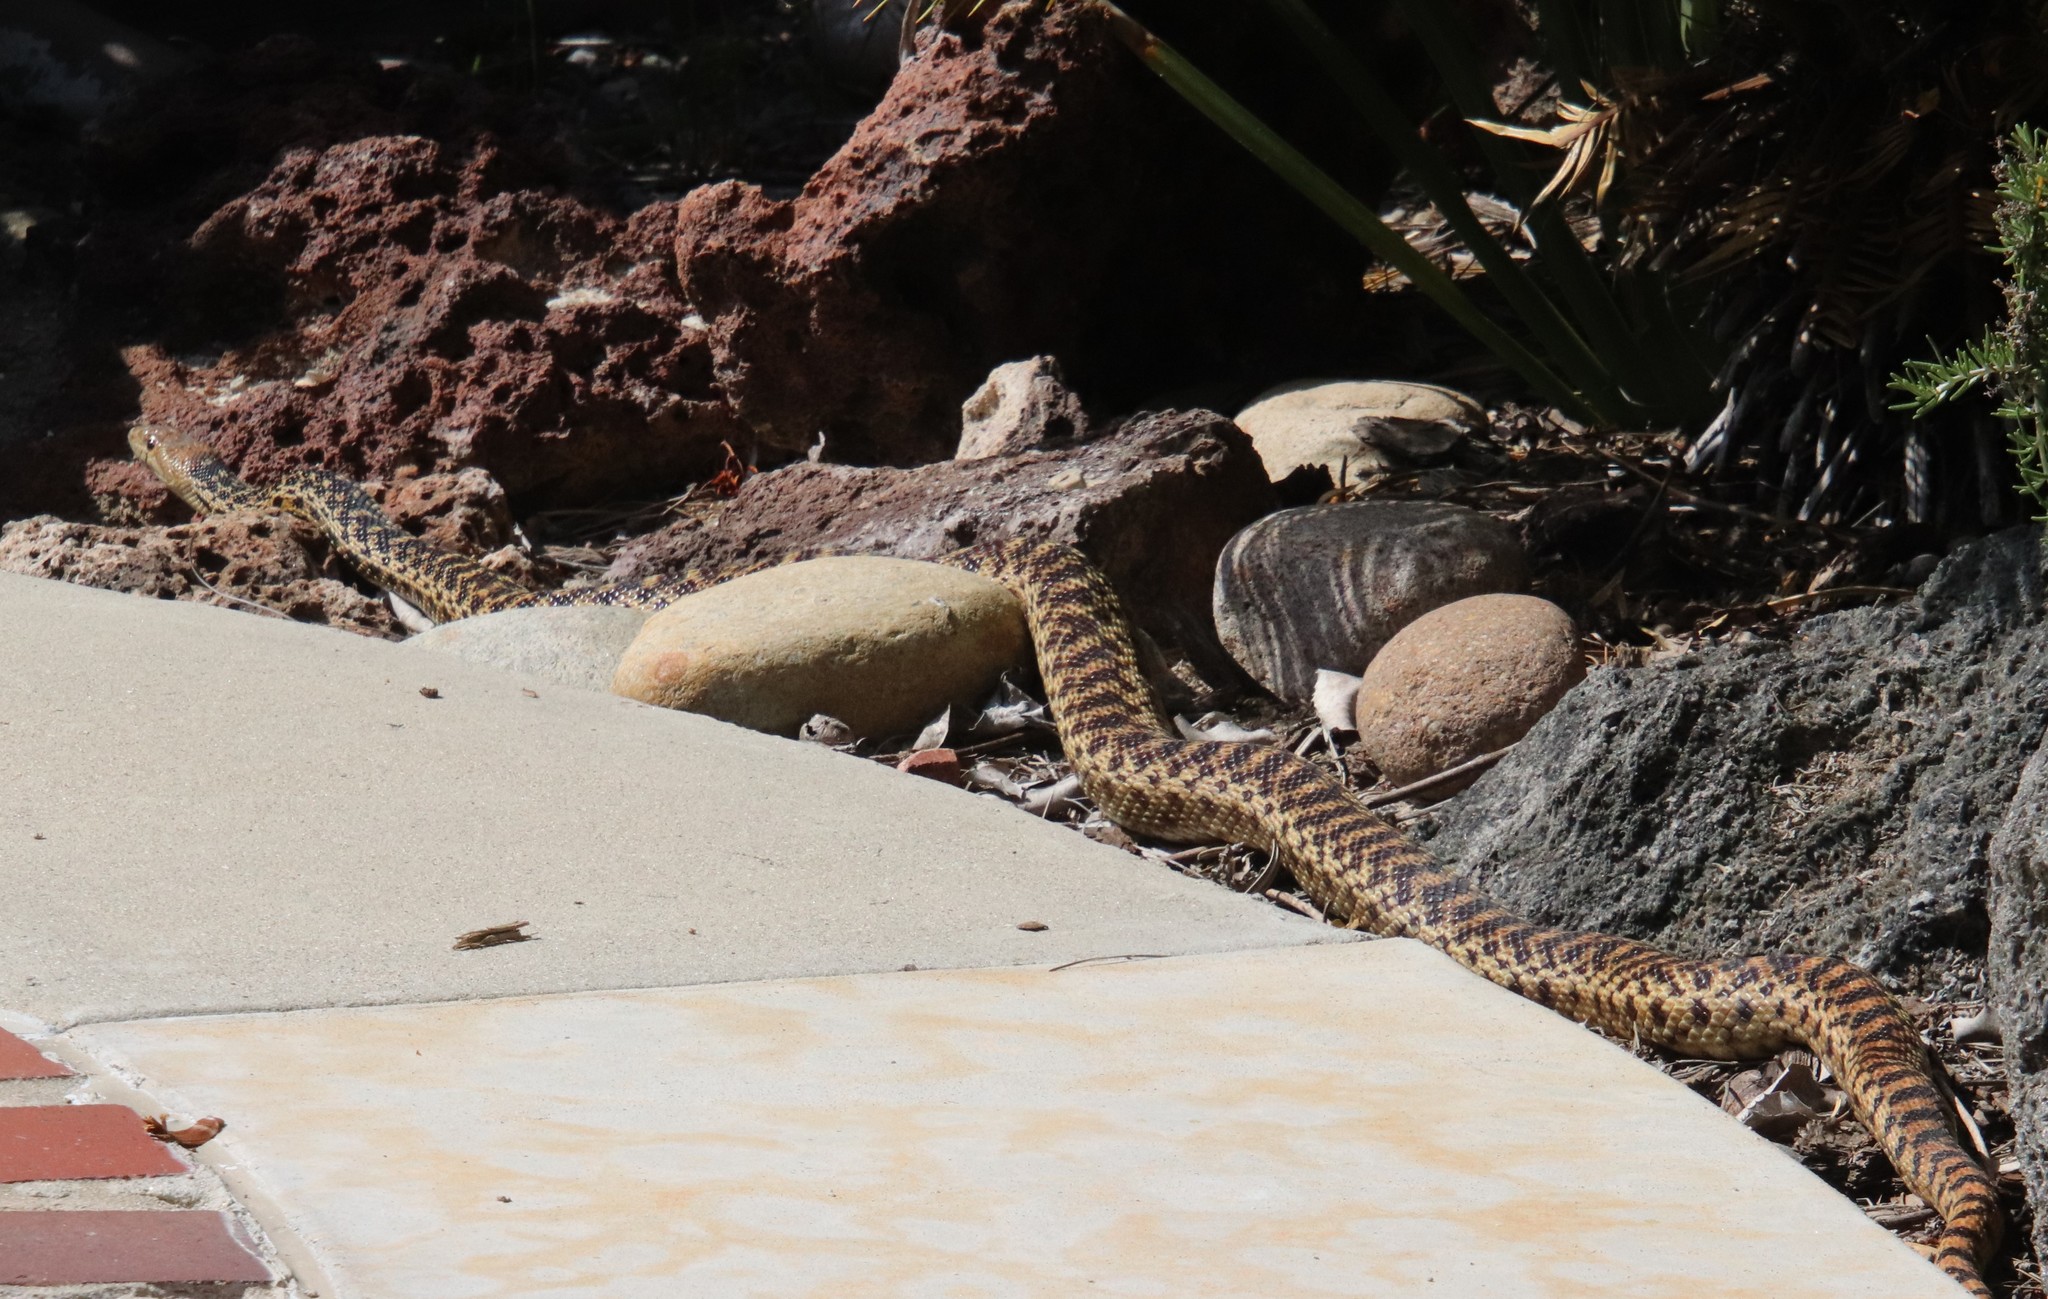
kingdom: Animalia
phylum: Chordata
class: Squamata
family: Colubridae
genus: Pituophis
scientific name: Pituophis catenifer
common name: Gopher snake
